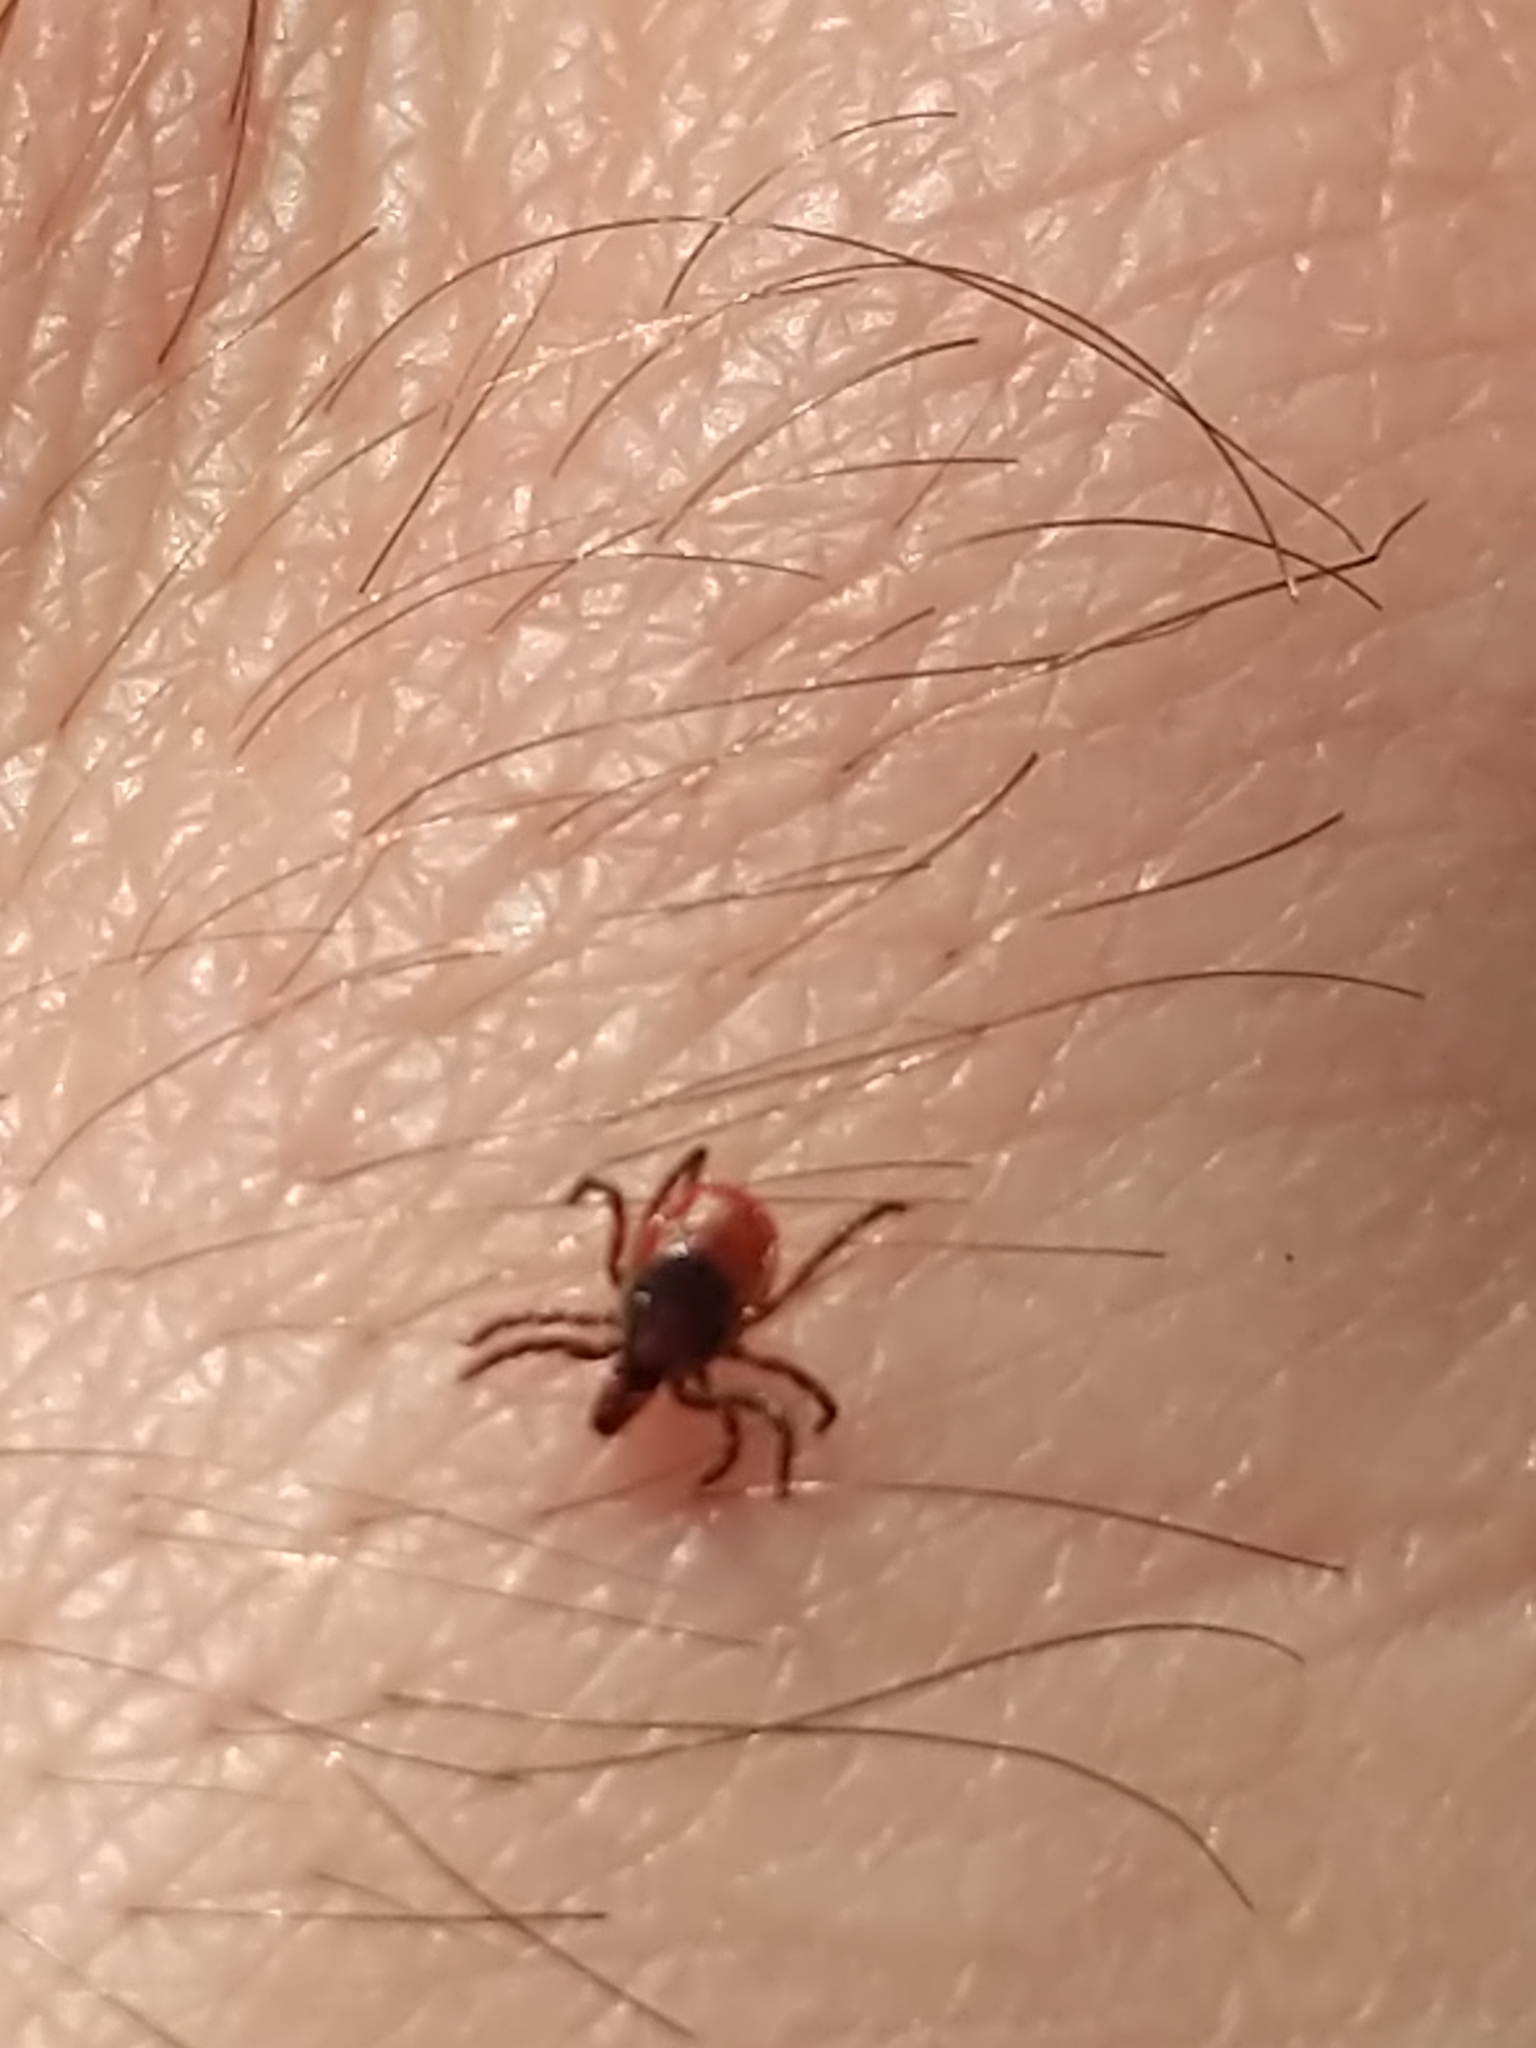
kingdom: Animalia
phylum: Arthropoda
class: Arachnida
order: Ixodida
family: Ixodidae
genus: Ixodes
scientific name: Ixodes scapularis
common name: Black legged tick
